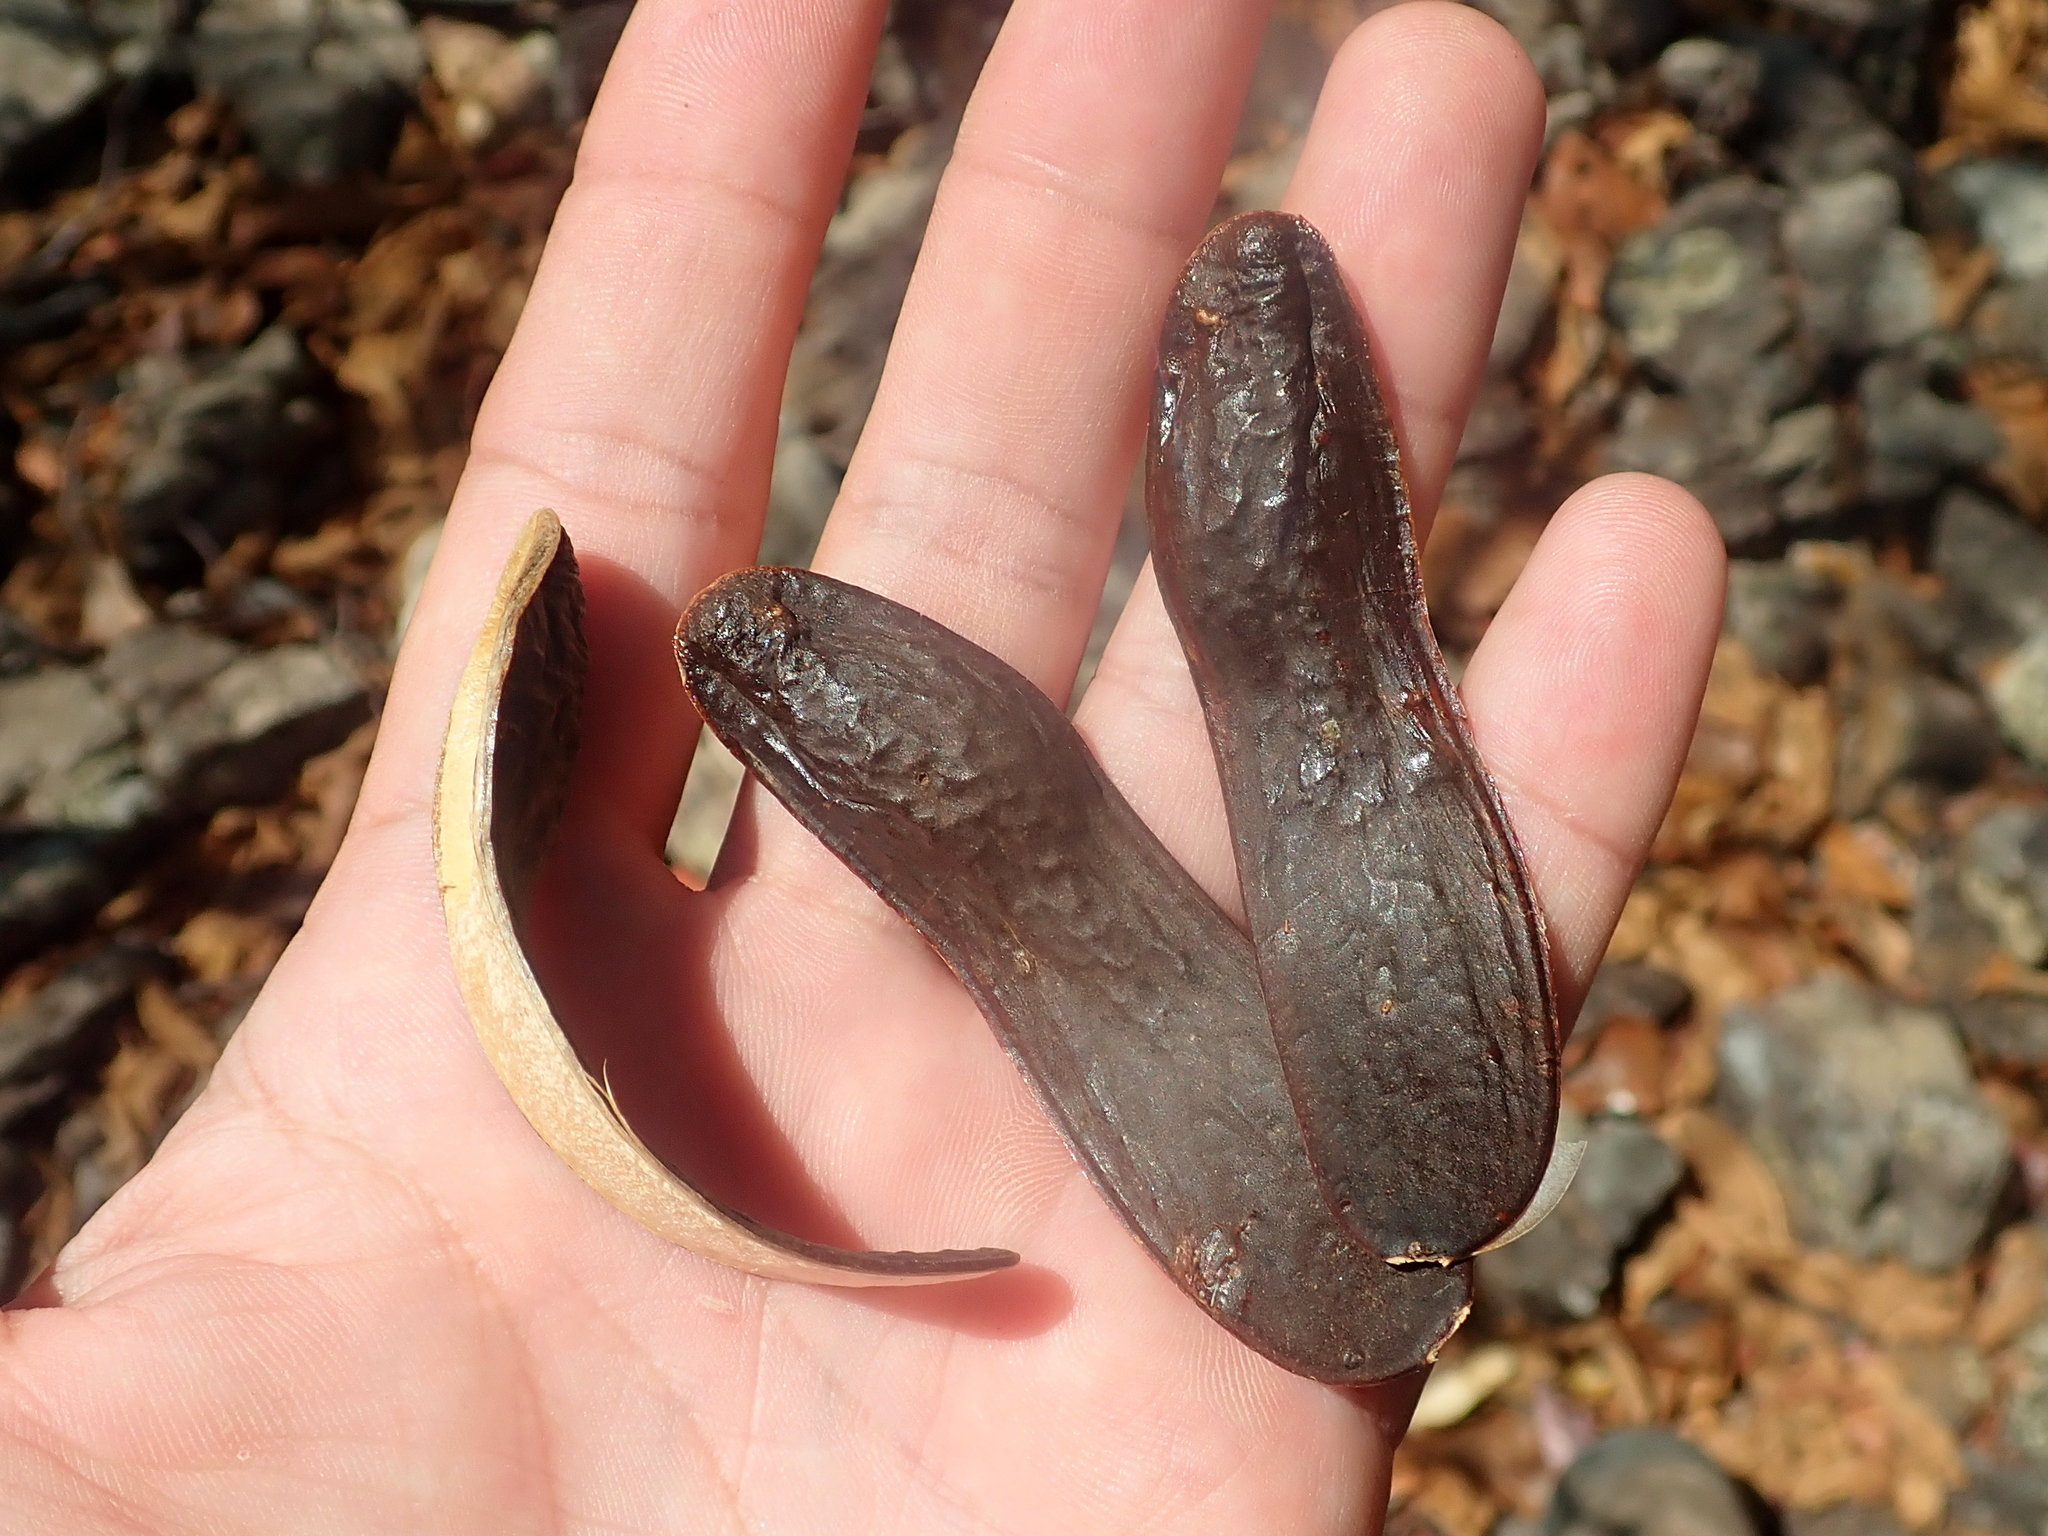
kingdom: Plantae
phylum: Tracheophyta
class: Magnoliopsida
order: Fabales
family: Fabaceae
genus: Amburana
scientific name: Amburana cearensis
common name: Cerejeira
